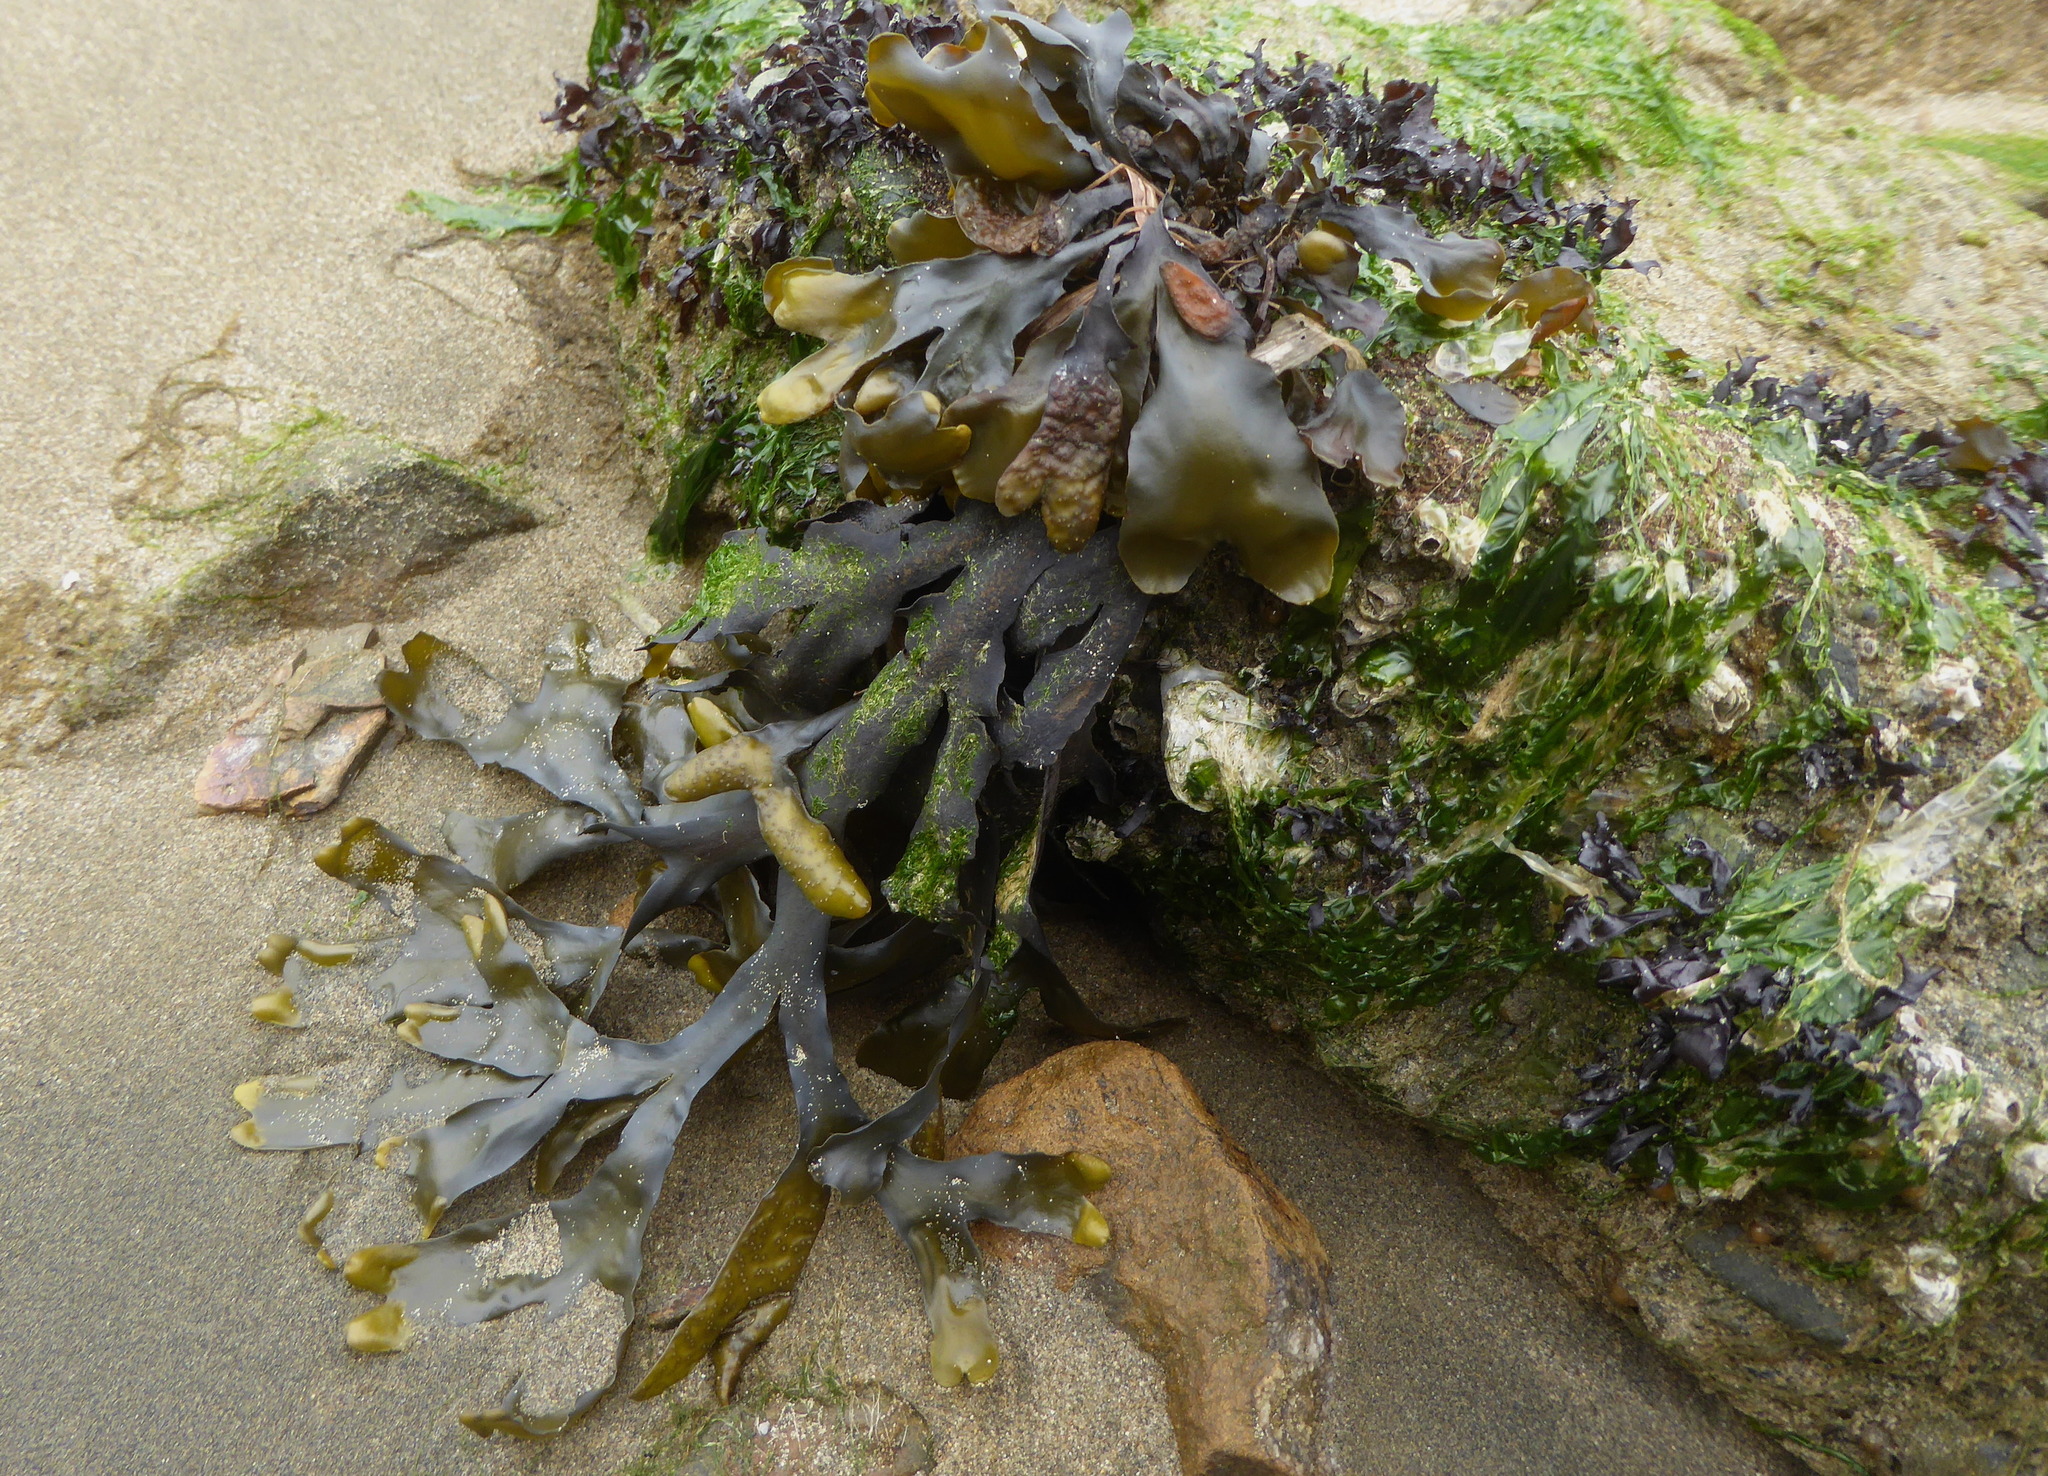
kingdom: Chromista
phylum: Ochrophyta
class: Phaeophyceae
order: Fucales
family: Fucaceae
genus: Fucus
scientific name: Fucus distichus
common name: Rockweed
